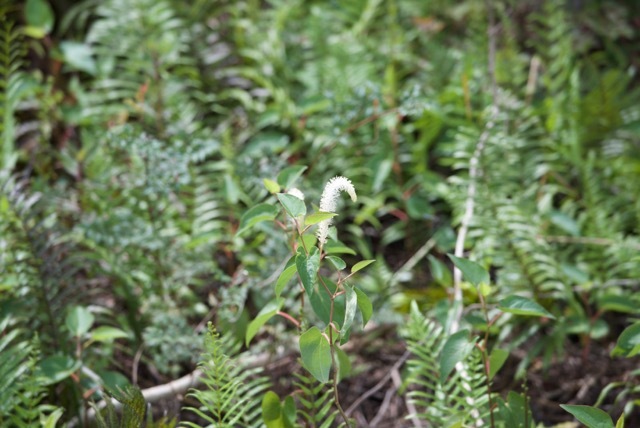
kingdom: Plantae
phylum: Tracheophyta
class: Magnoliopsida
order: Piperales
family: Saururaceae
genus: Saururus
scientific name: Saururus cernuus
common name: Lizard's-tail
